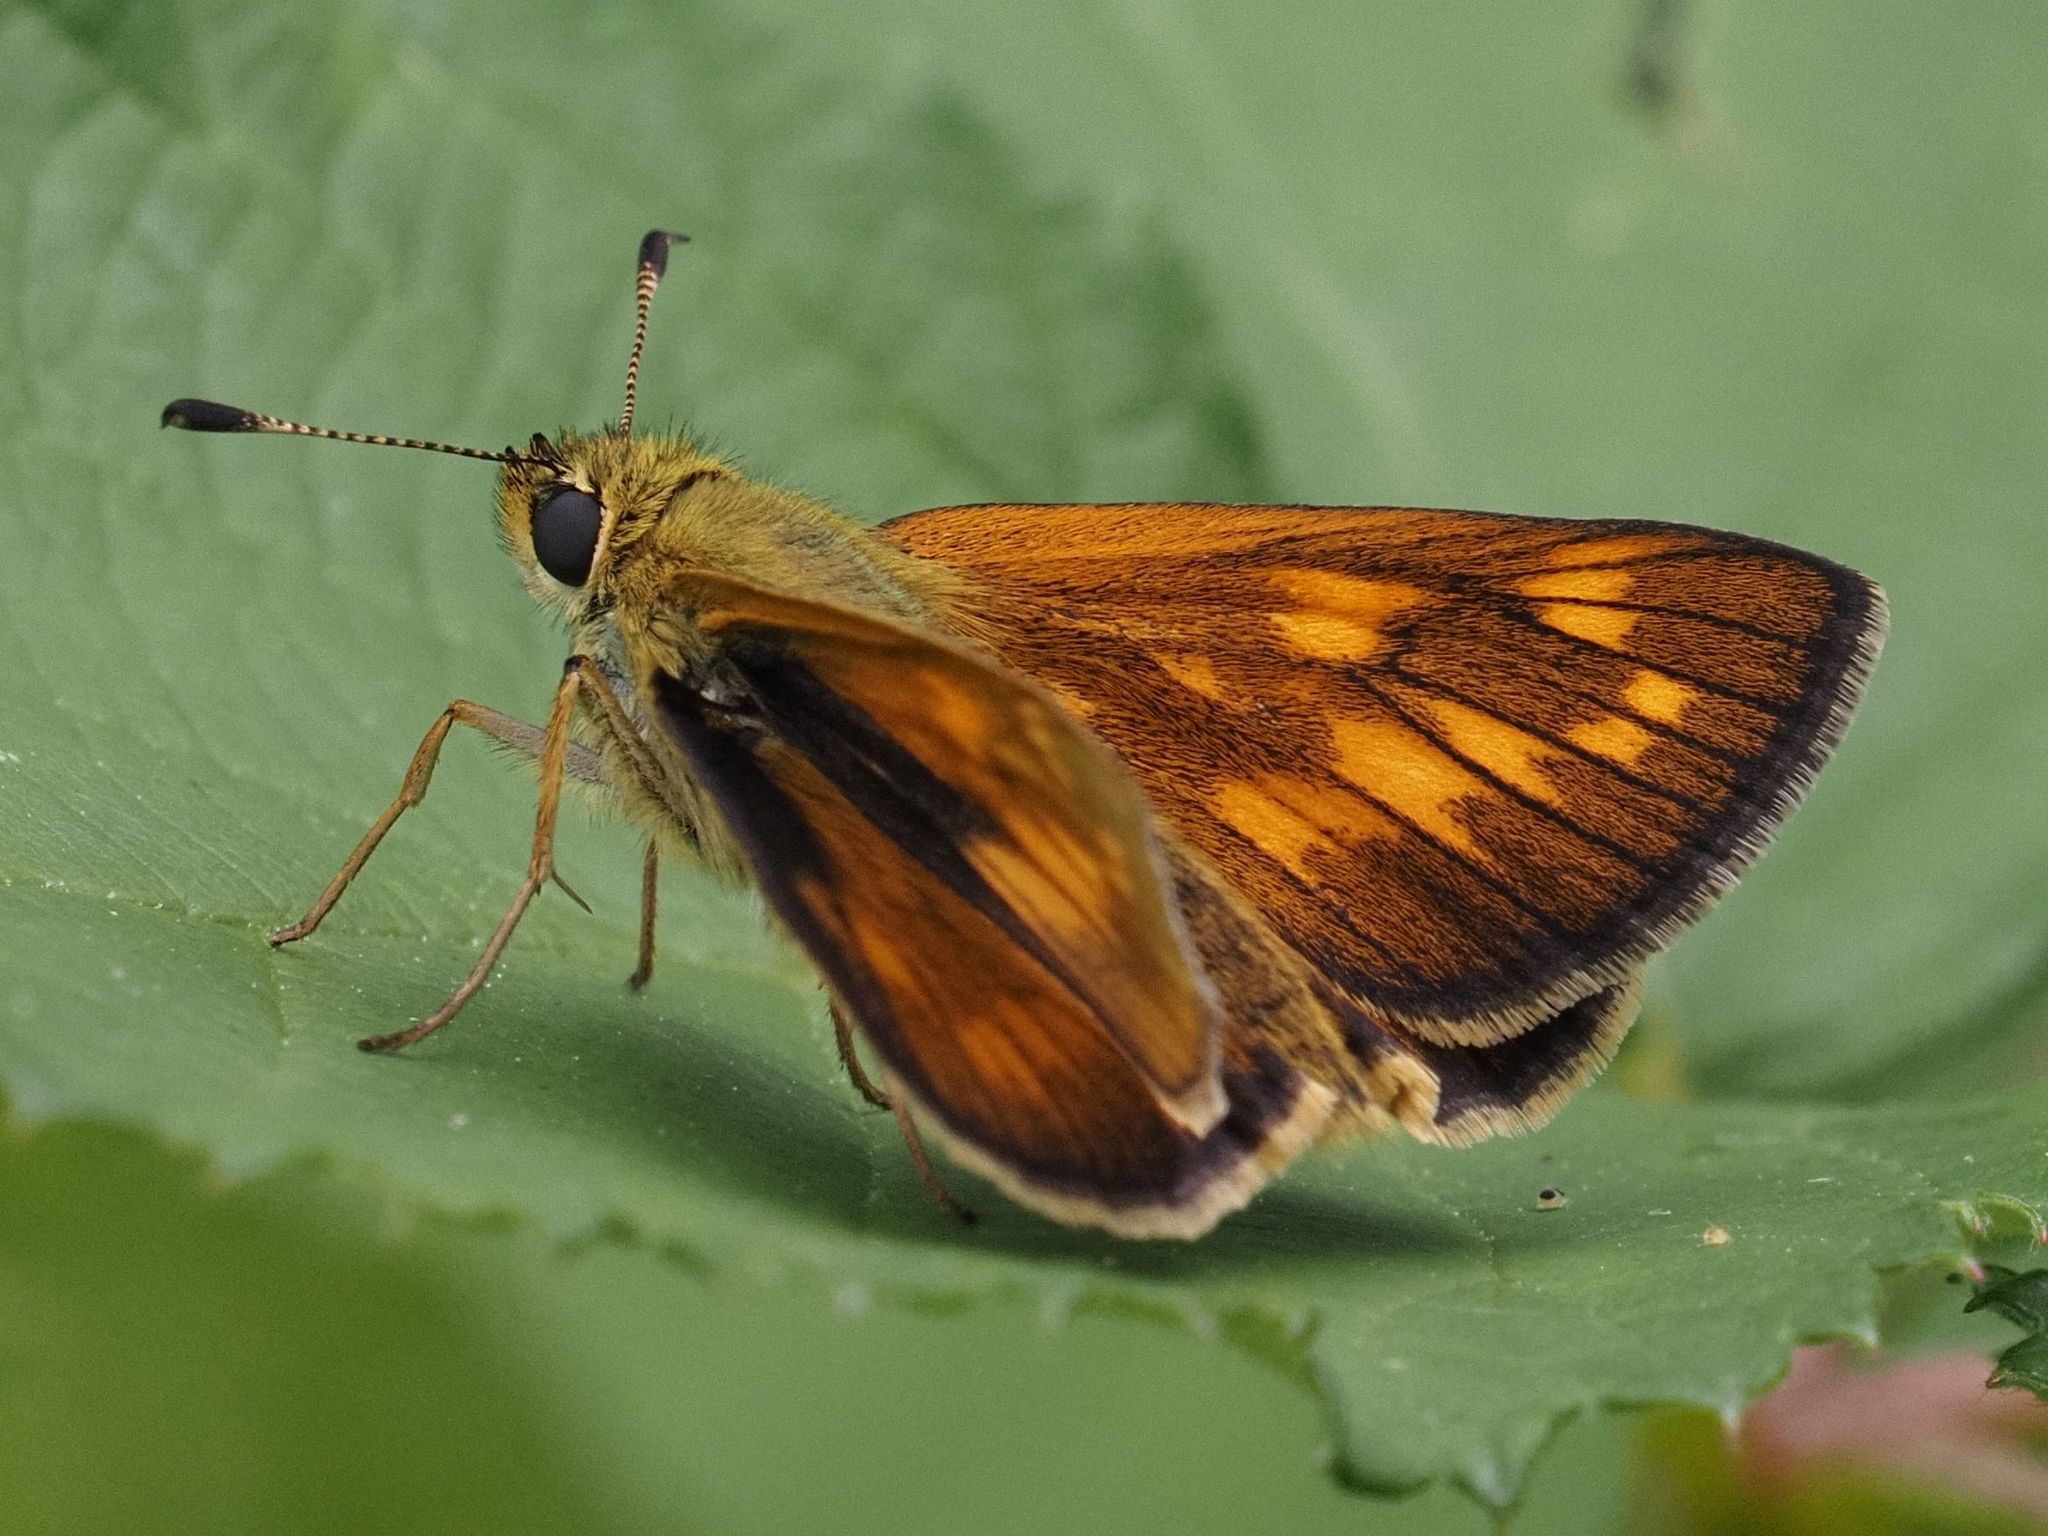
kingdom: Animalia
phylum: Arthropoda
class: Insecta
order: Lepidoptera
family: Hesperiidae
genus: Ochlodes
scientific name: Ochlodes venata
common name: Large skipper
